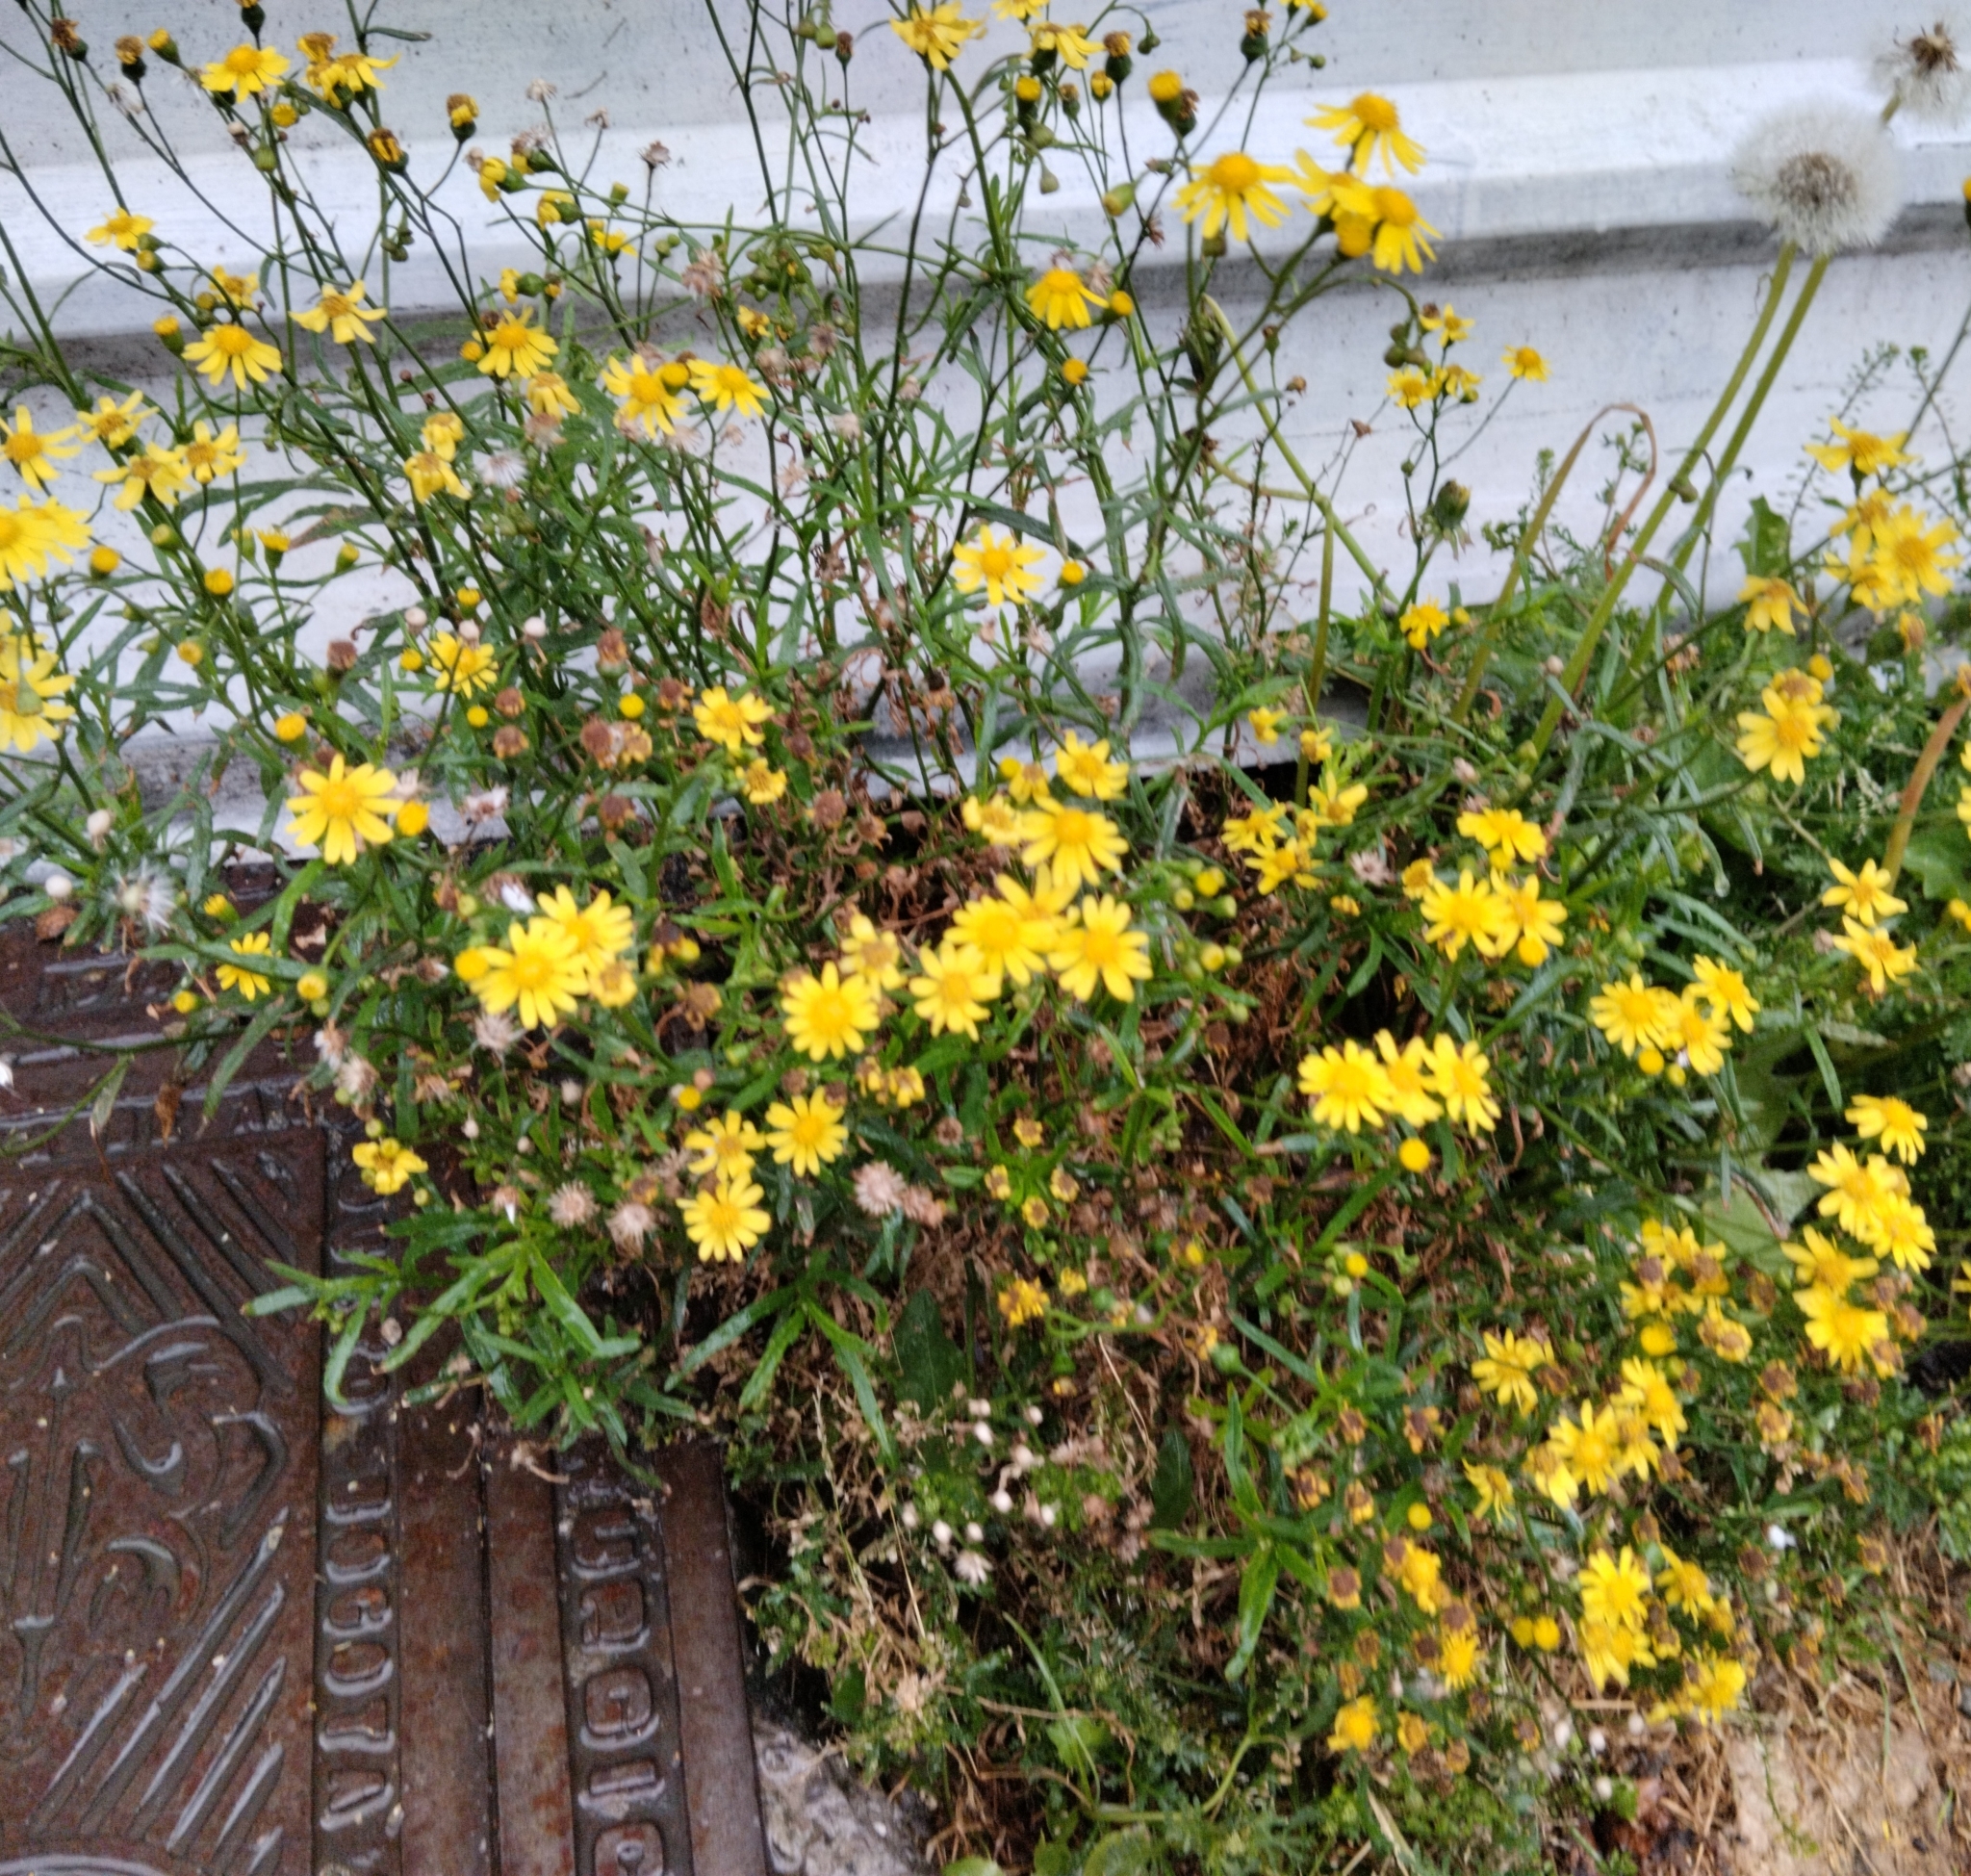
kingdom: Plantae
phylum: Tracheophyta
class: Magnoliopsida
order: Asterales
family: Asteraceae
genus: Senecio
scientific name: Senecio madagascariensis
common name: Madagascar ragwort
